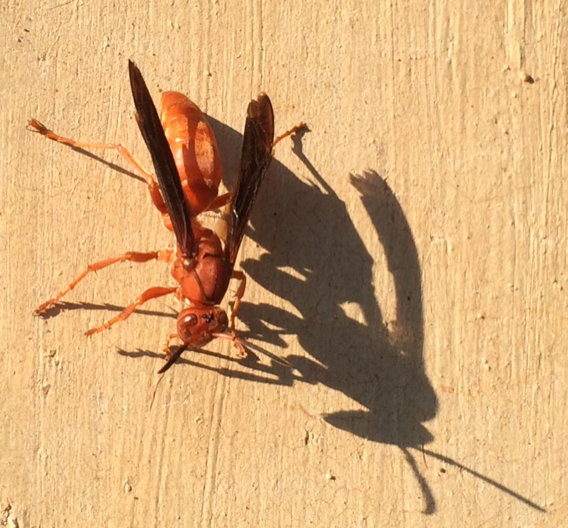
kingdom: Animalia
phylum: Arthropoda
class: Insecta
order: Hymenoptera
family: Eumenidae
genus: Polistes
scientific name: Polistes
